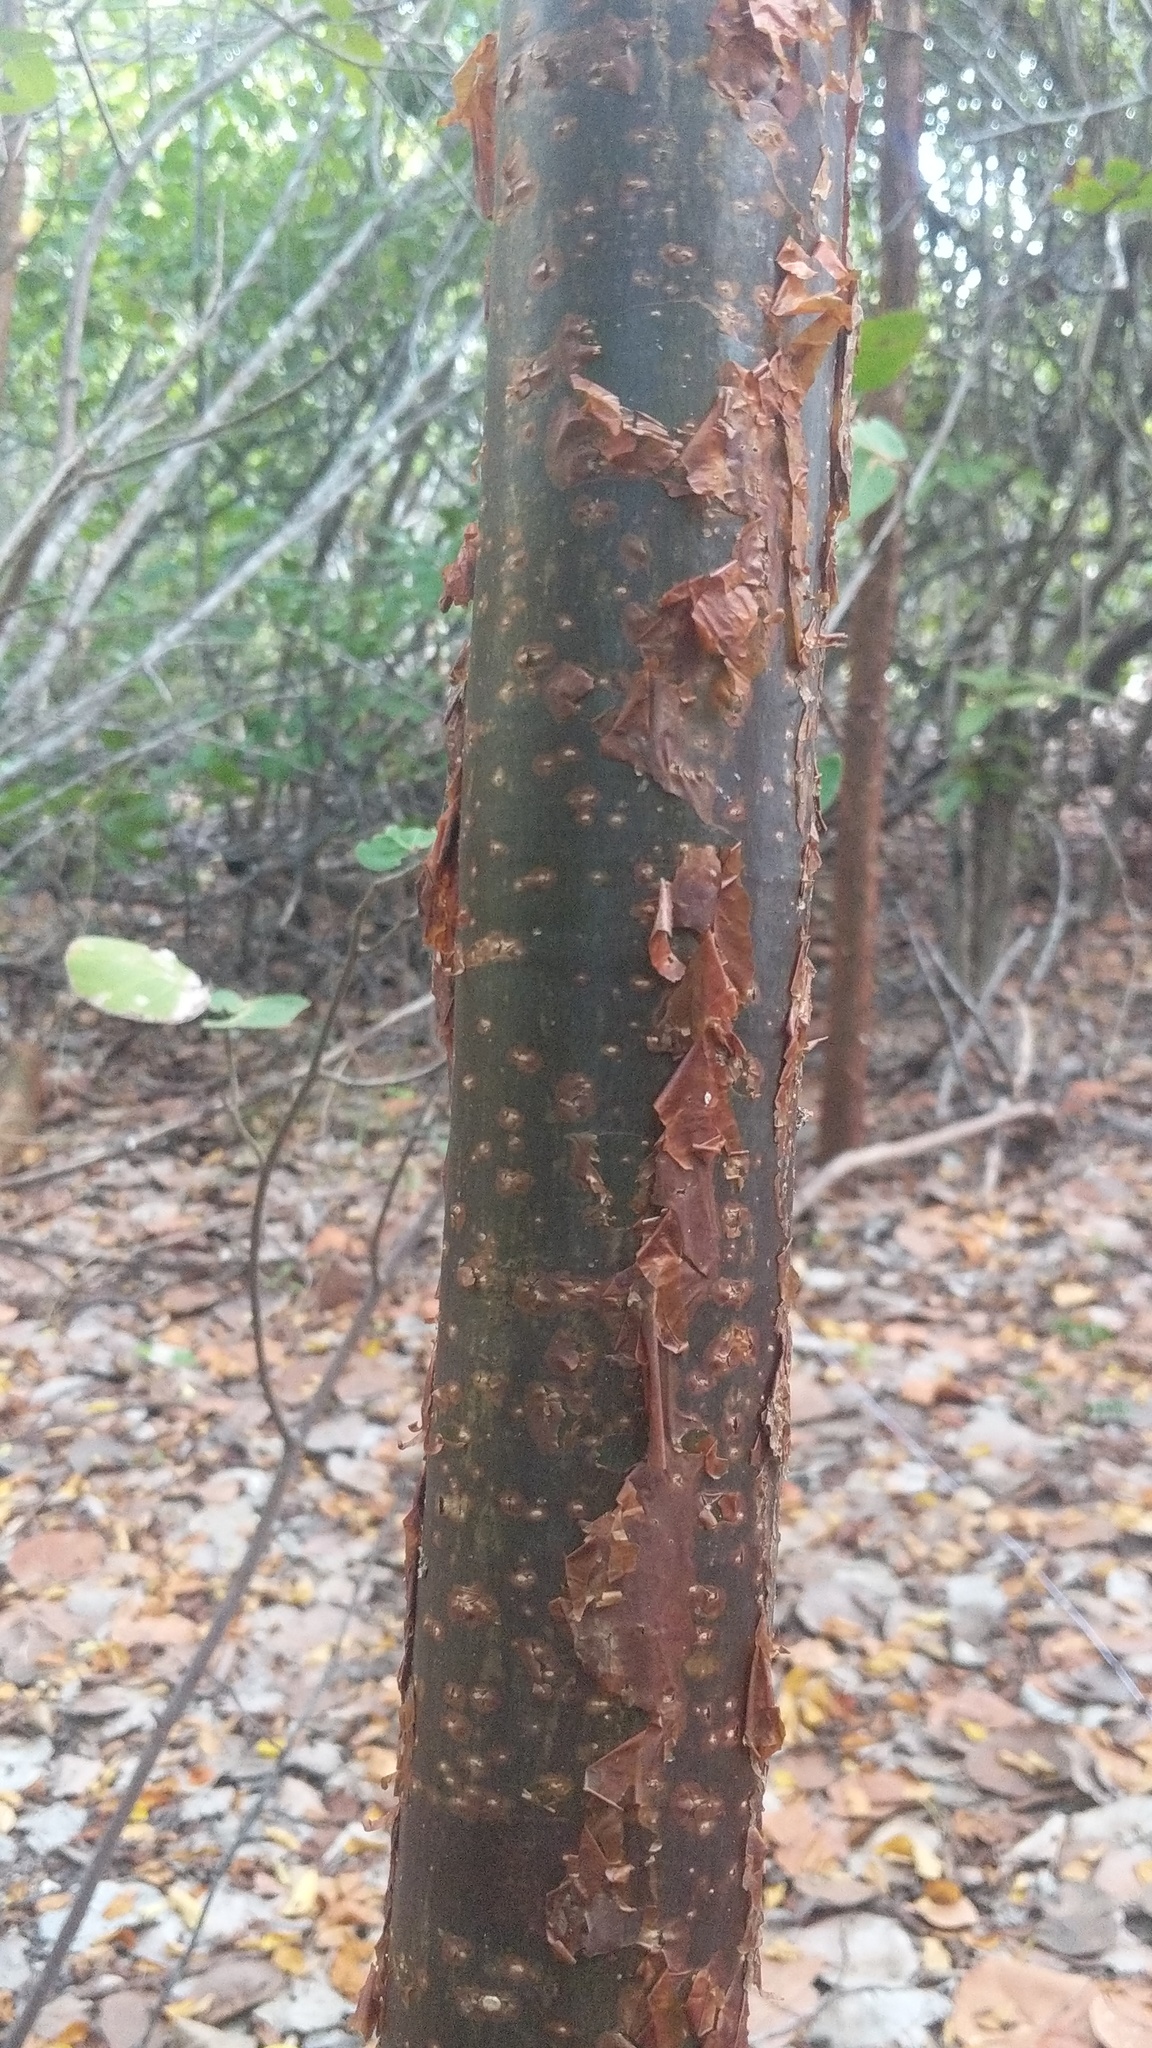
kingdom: Plantae
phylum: Tracheophyta
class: Magnoliopsida
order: Sapindales
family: Burseraceae
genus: Bursera
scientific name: Bursera simaruba
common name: Turpentine tree
